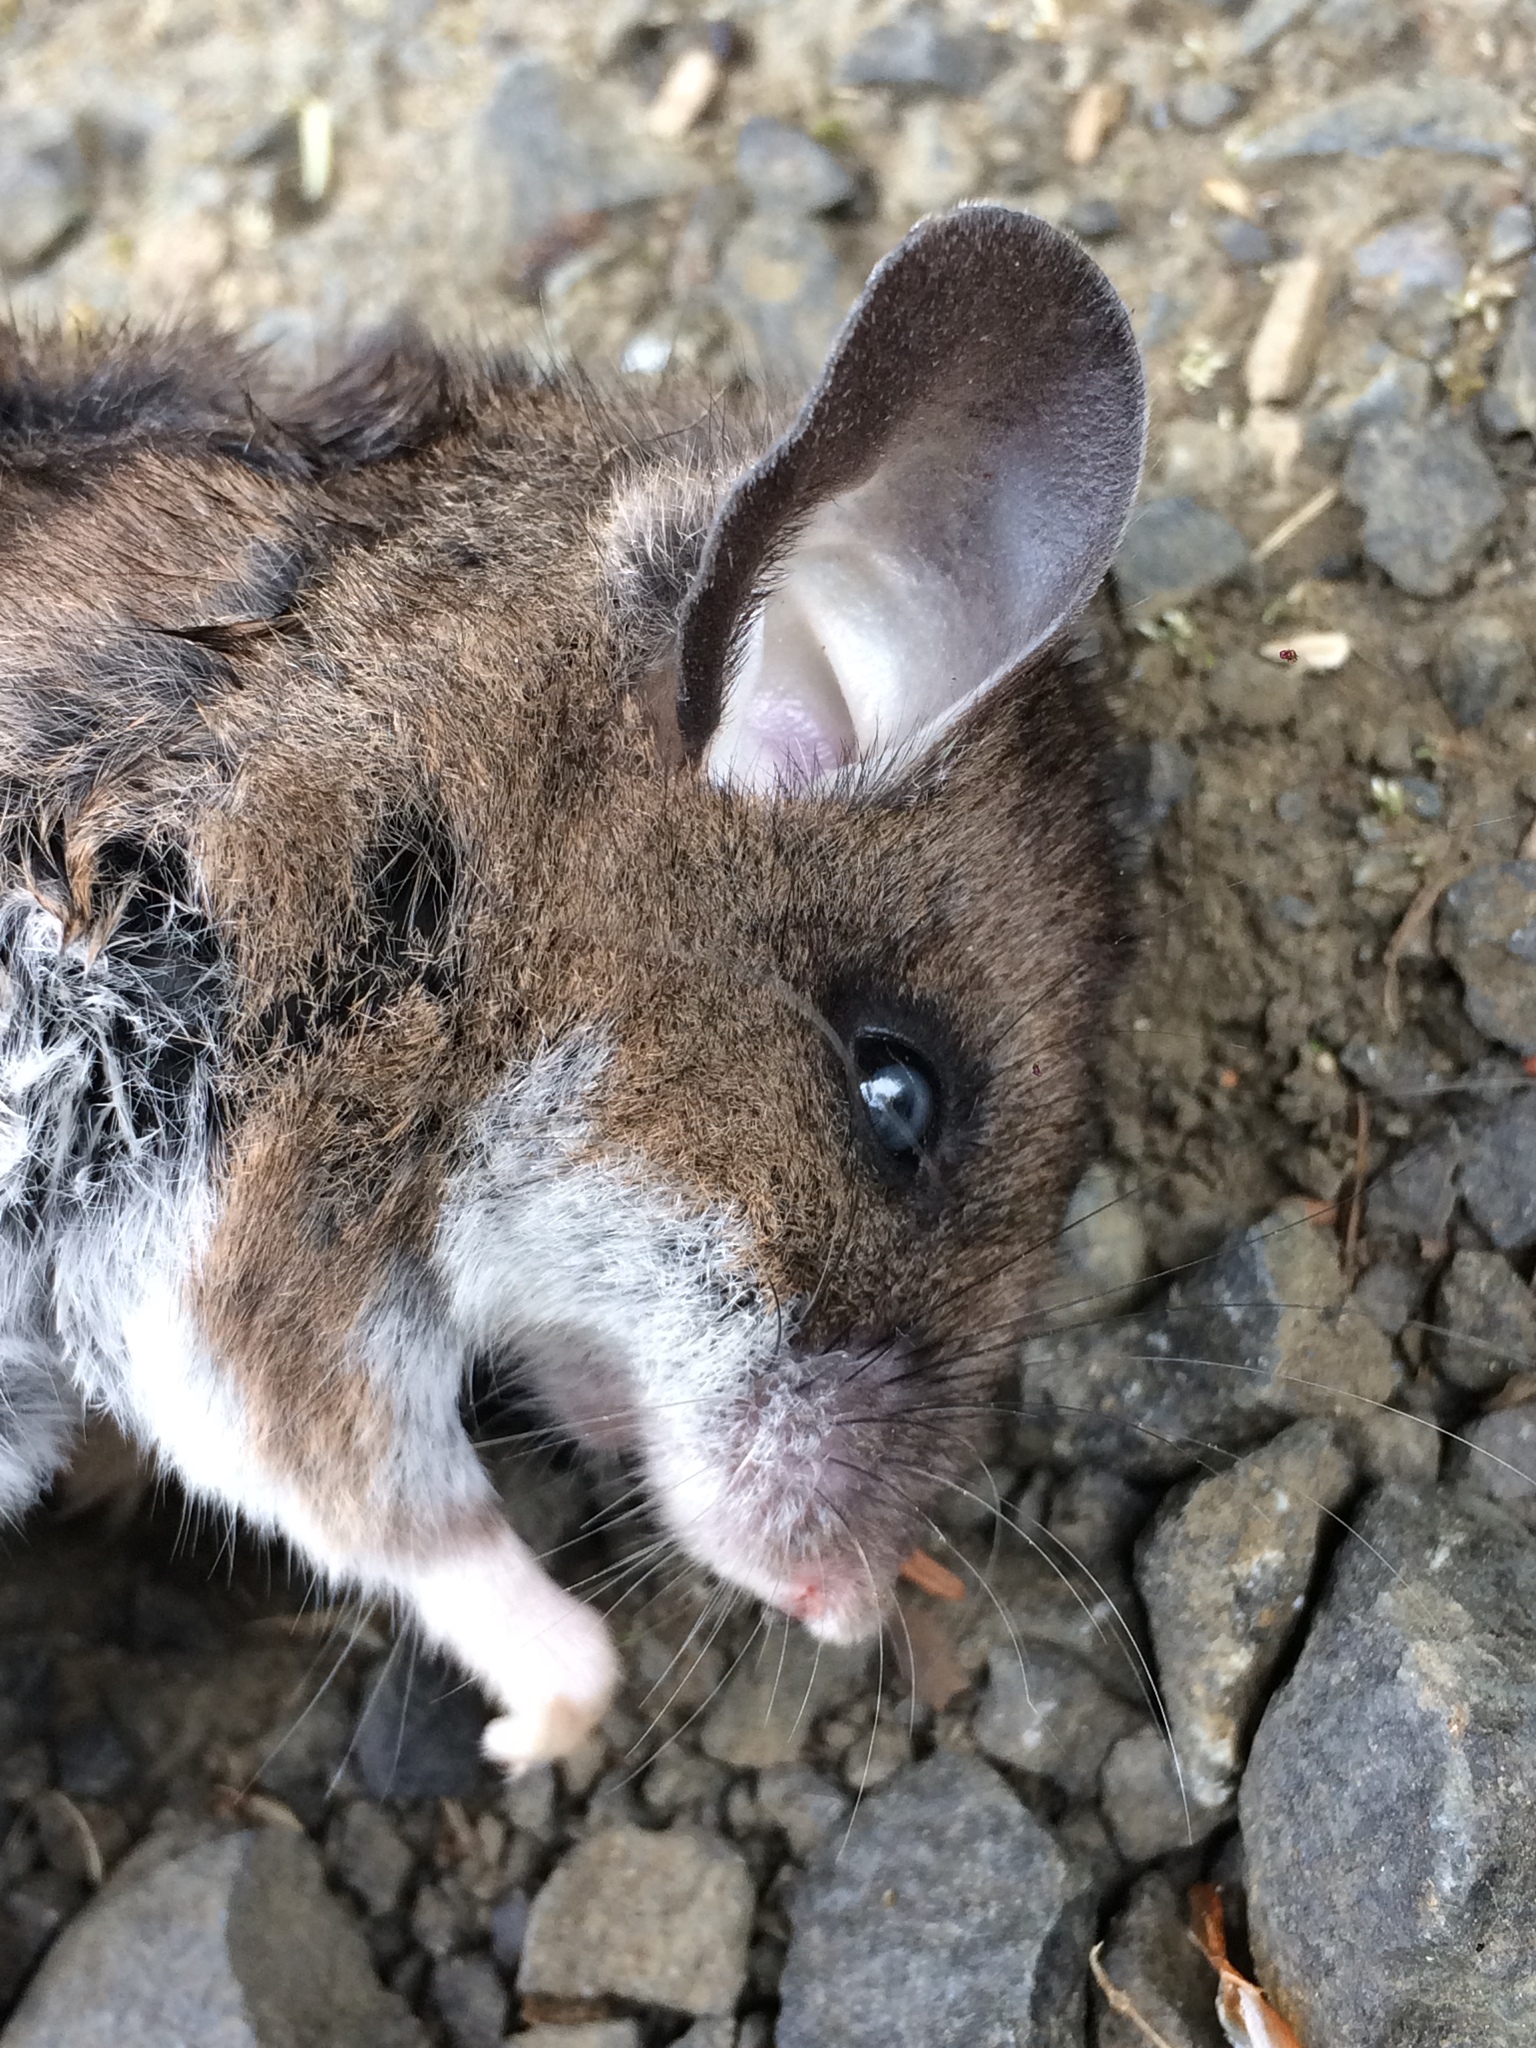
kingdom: Animalia
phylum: Chordata
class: Mammalia
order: Rodentia
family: Cricetidae
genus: Peromyscus
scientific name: Peromyscus maniculatus
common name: Deer mouse
